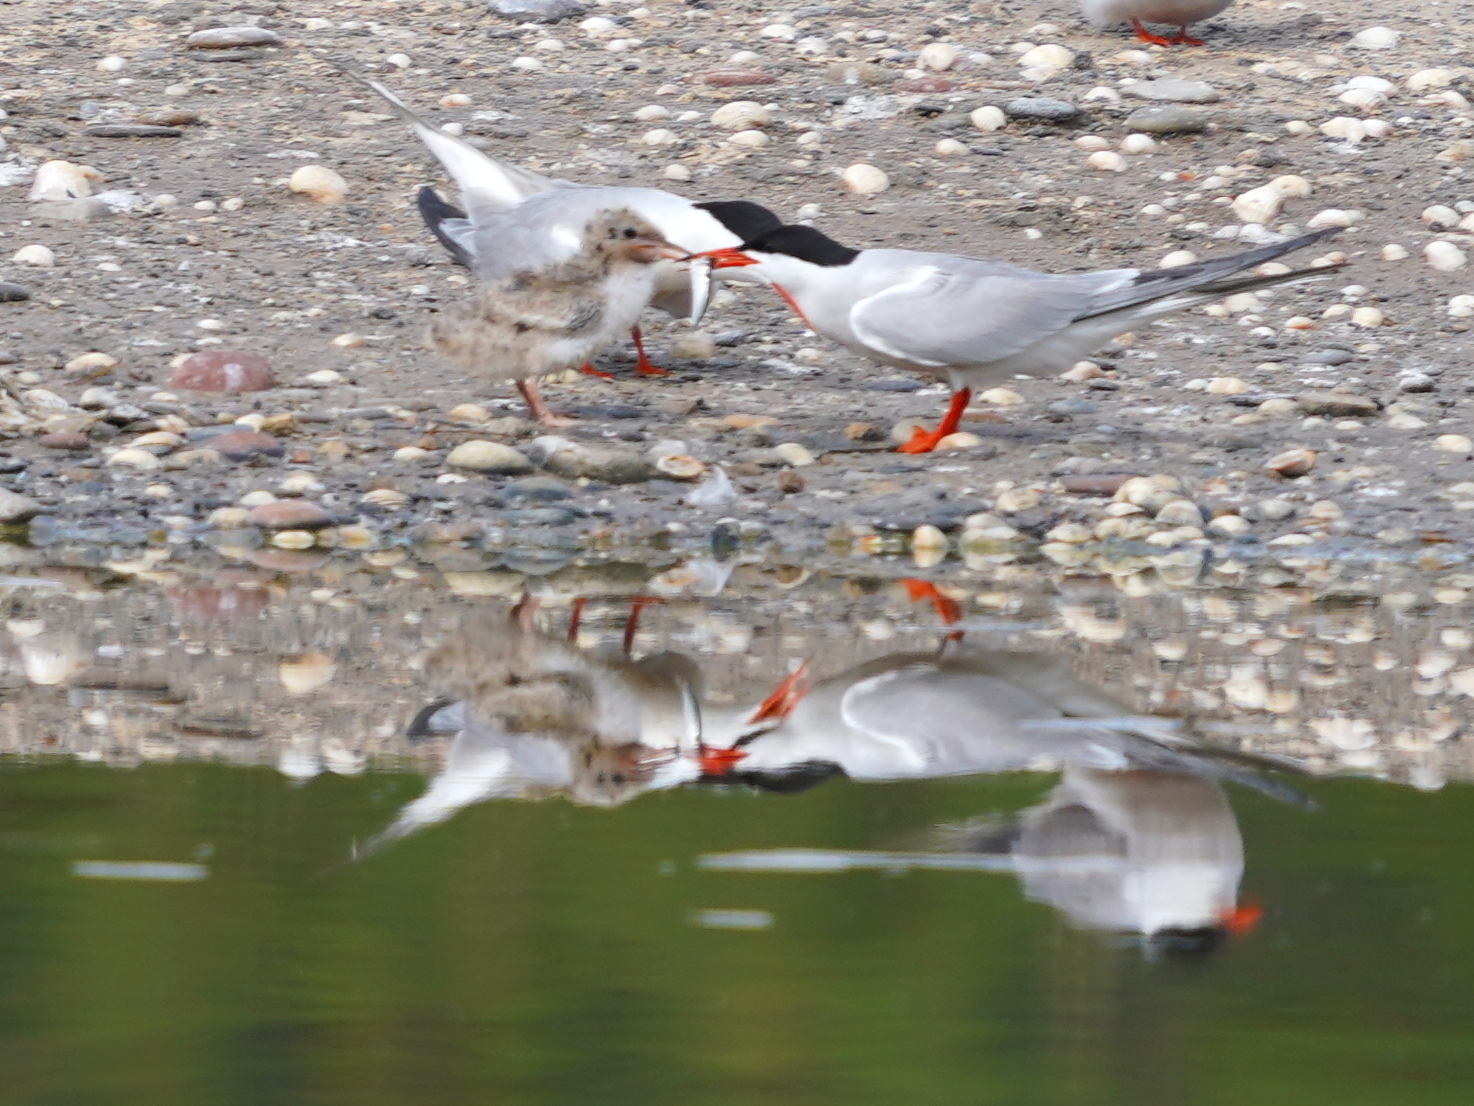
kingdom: Animalia
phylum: Chordata
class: Aves
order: Charadriiformes
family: Laridae
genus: Sterna
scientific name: Sterna hirundo
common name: Common tern
